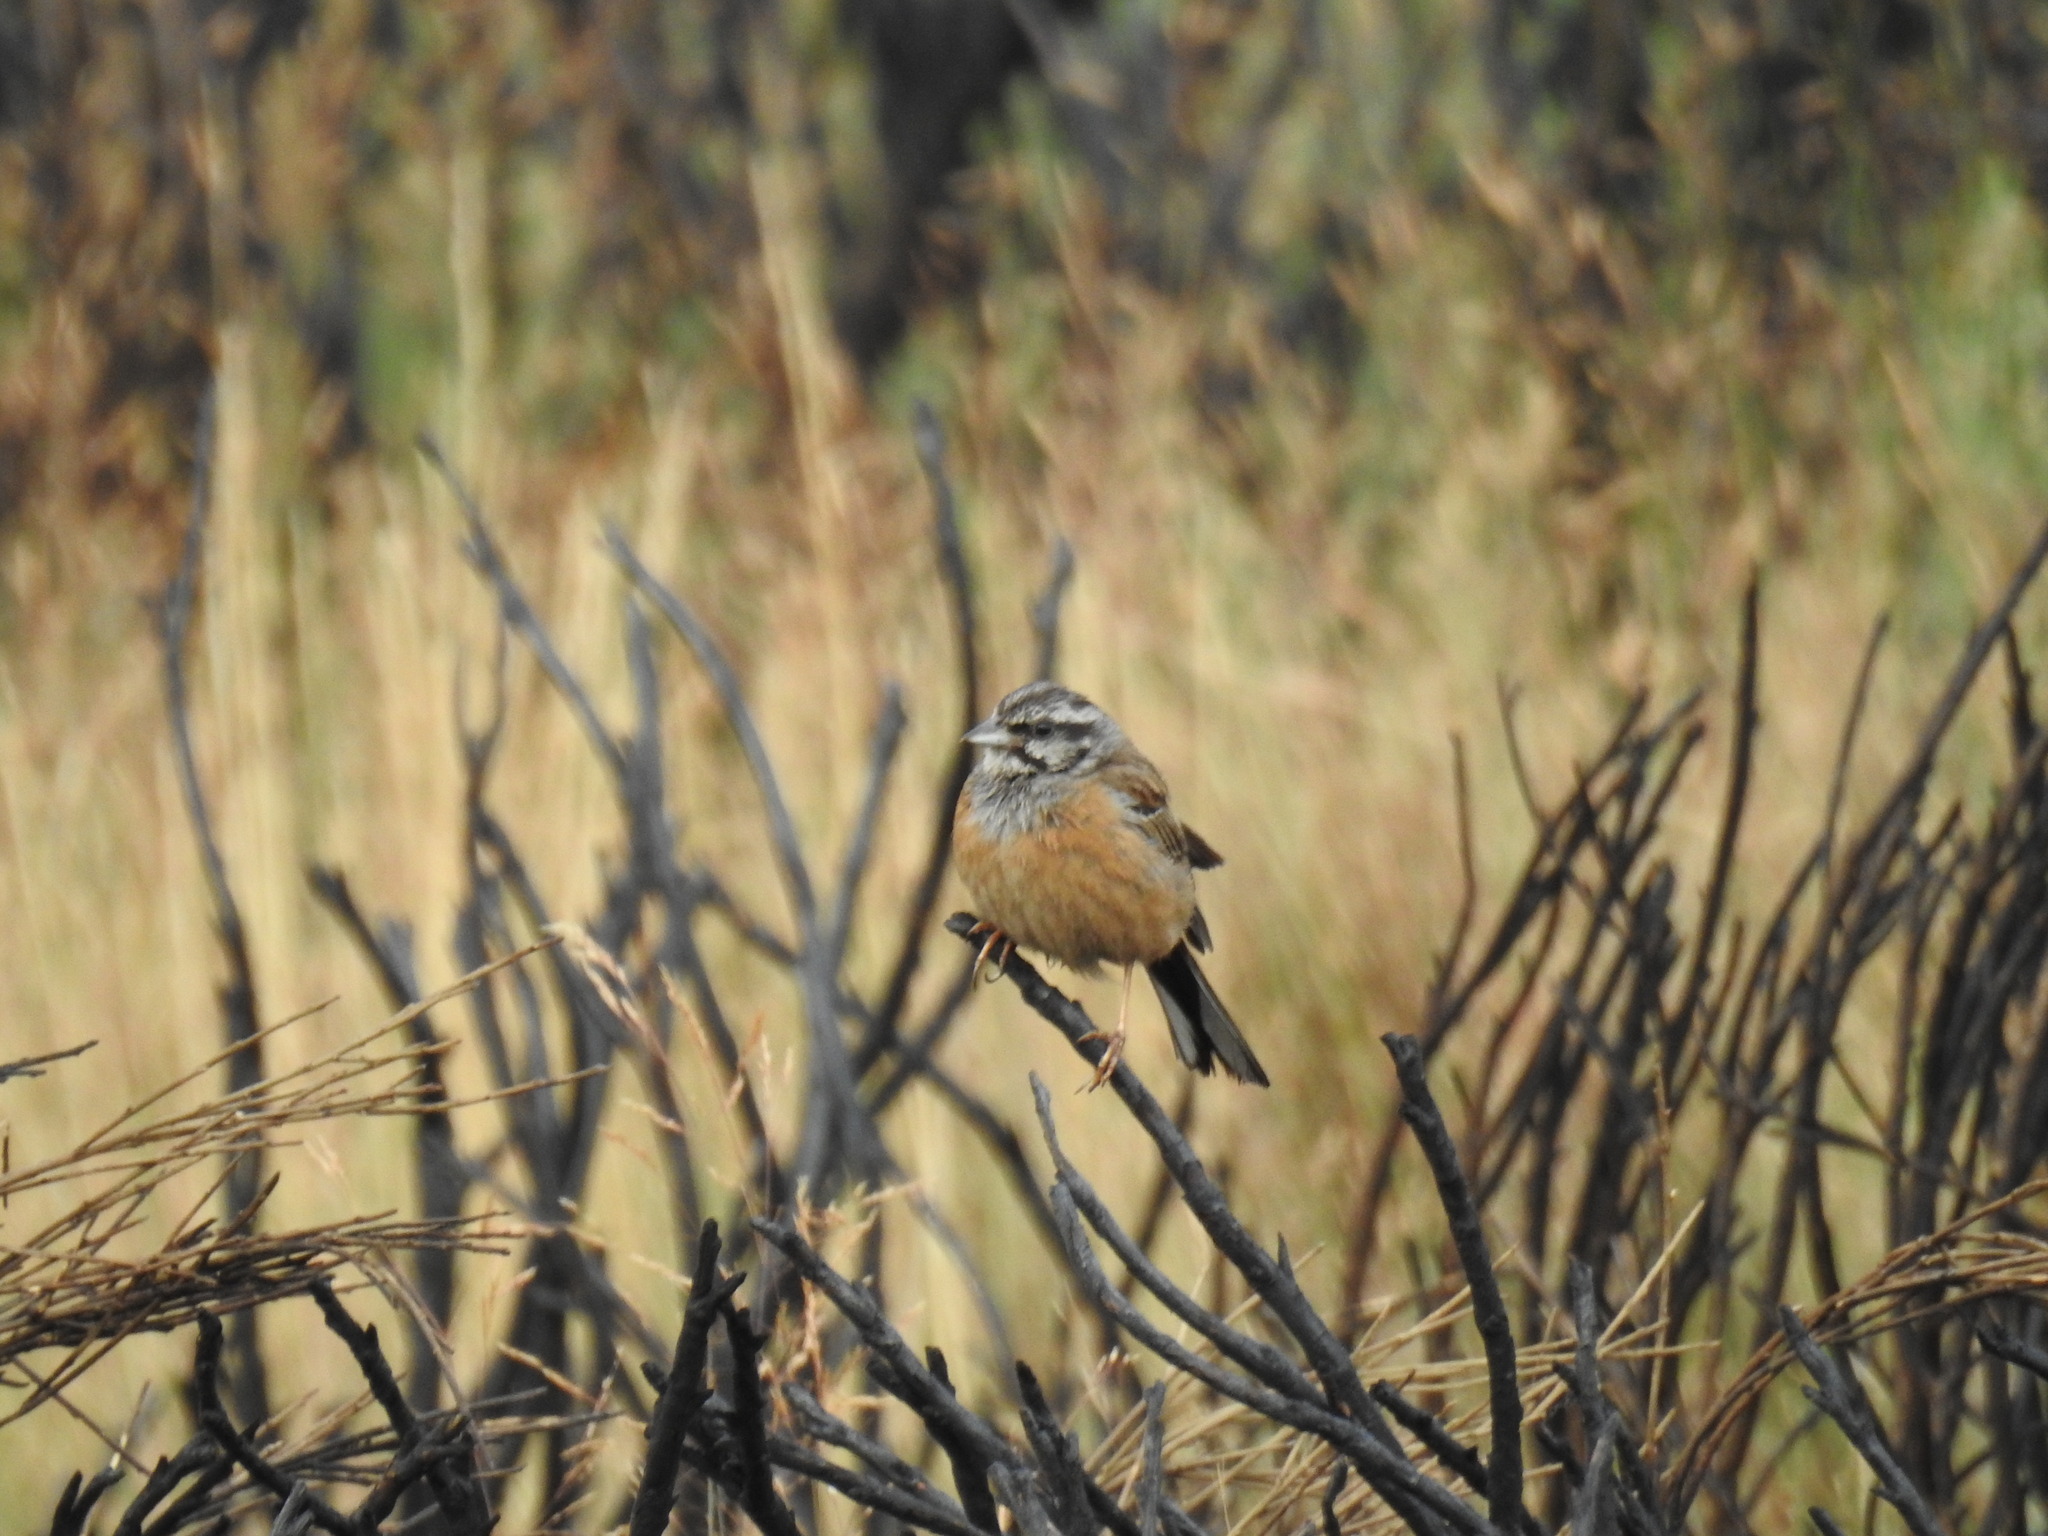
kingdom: Animalia
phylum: Chordata
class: Aves
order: Passeriformes
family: Emberizidae
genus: Emberiza
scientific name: Emberiza cia
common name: Rock bunting
